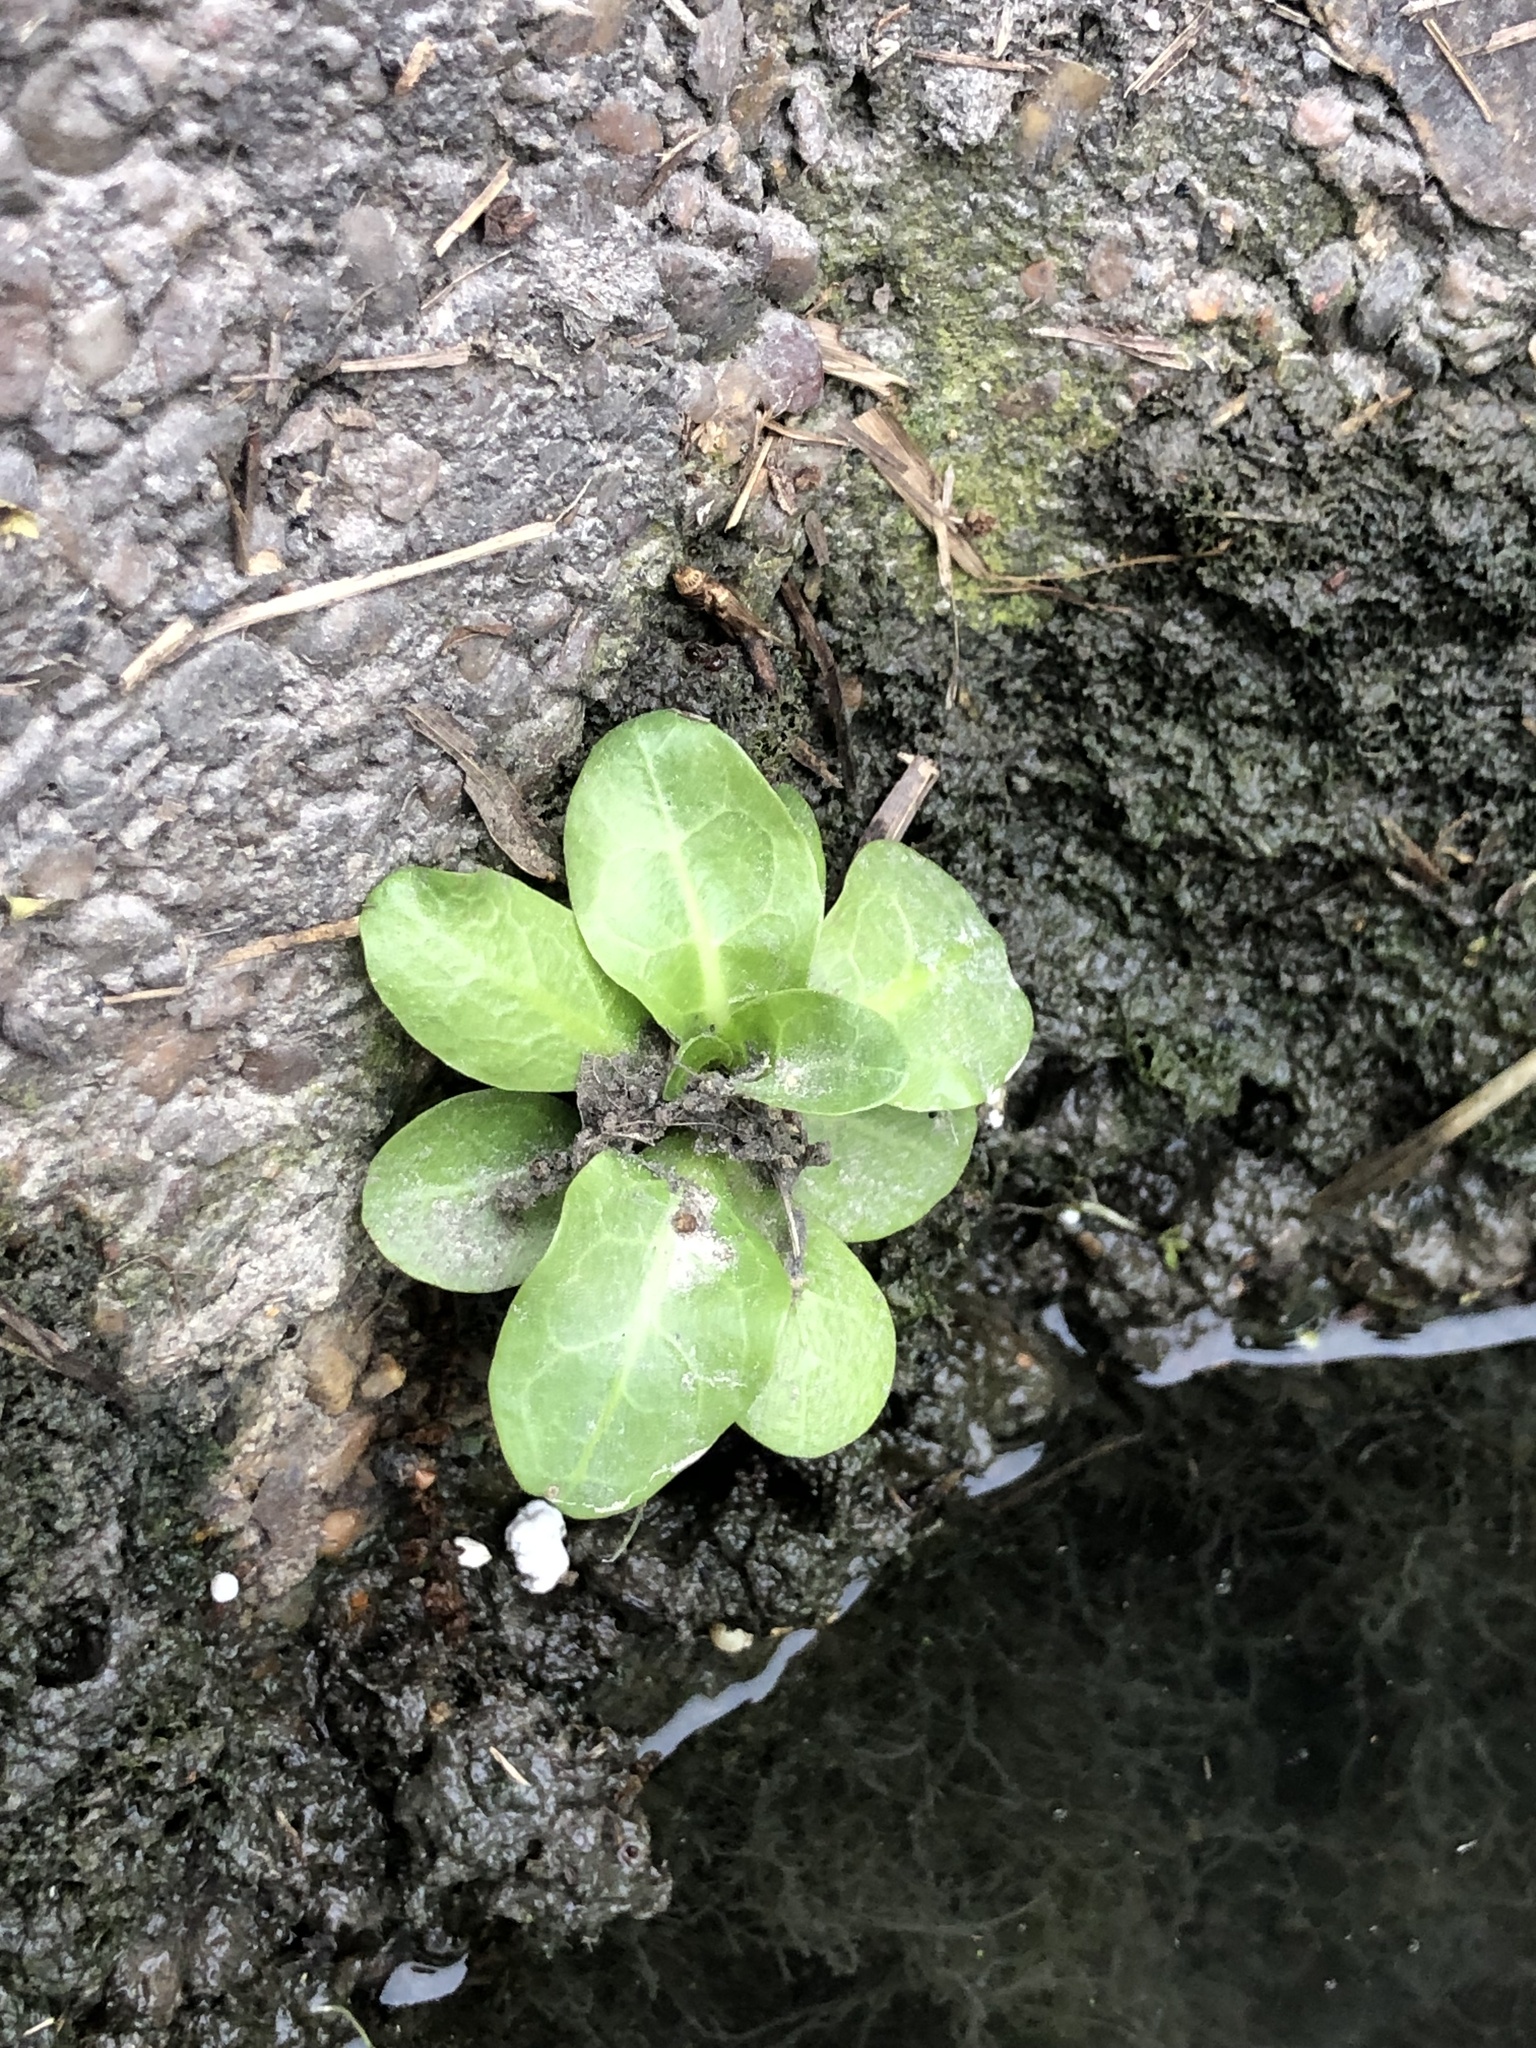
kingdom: Plantae
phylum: Tracheophyta
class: Magnoliopsida
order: Ericales
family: Primulaceae
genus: Samolus
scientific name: Samolus parviflorus
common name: False water pimpernel
